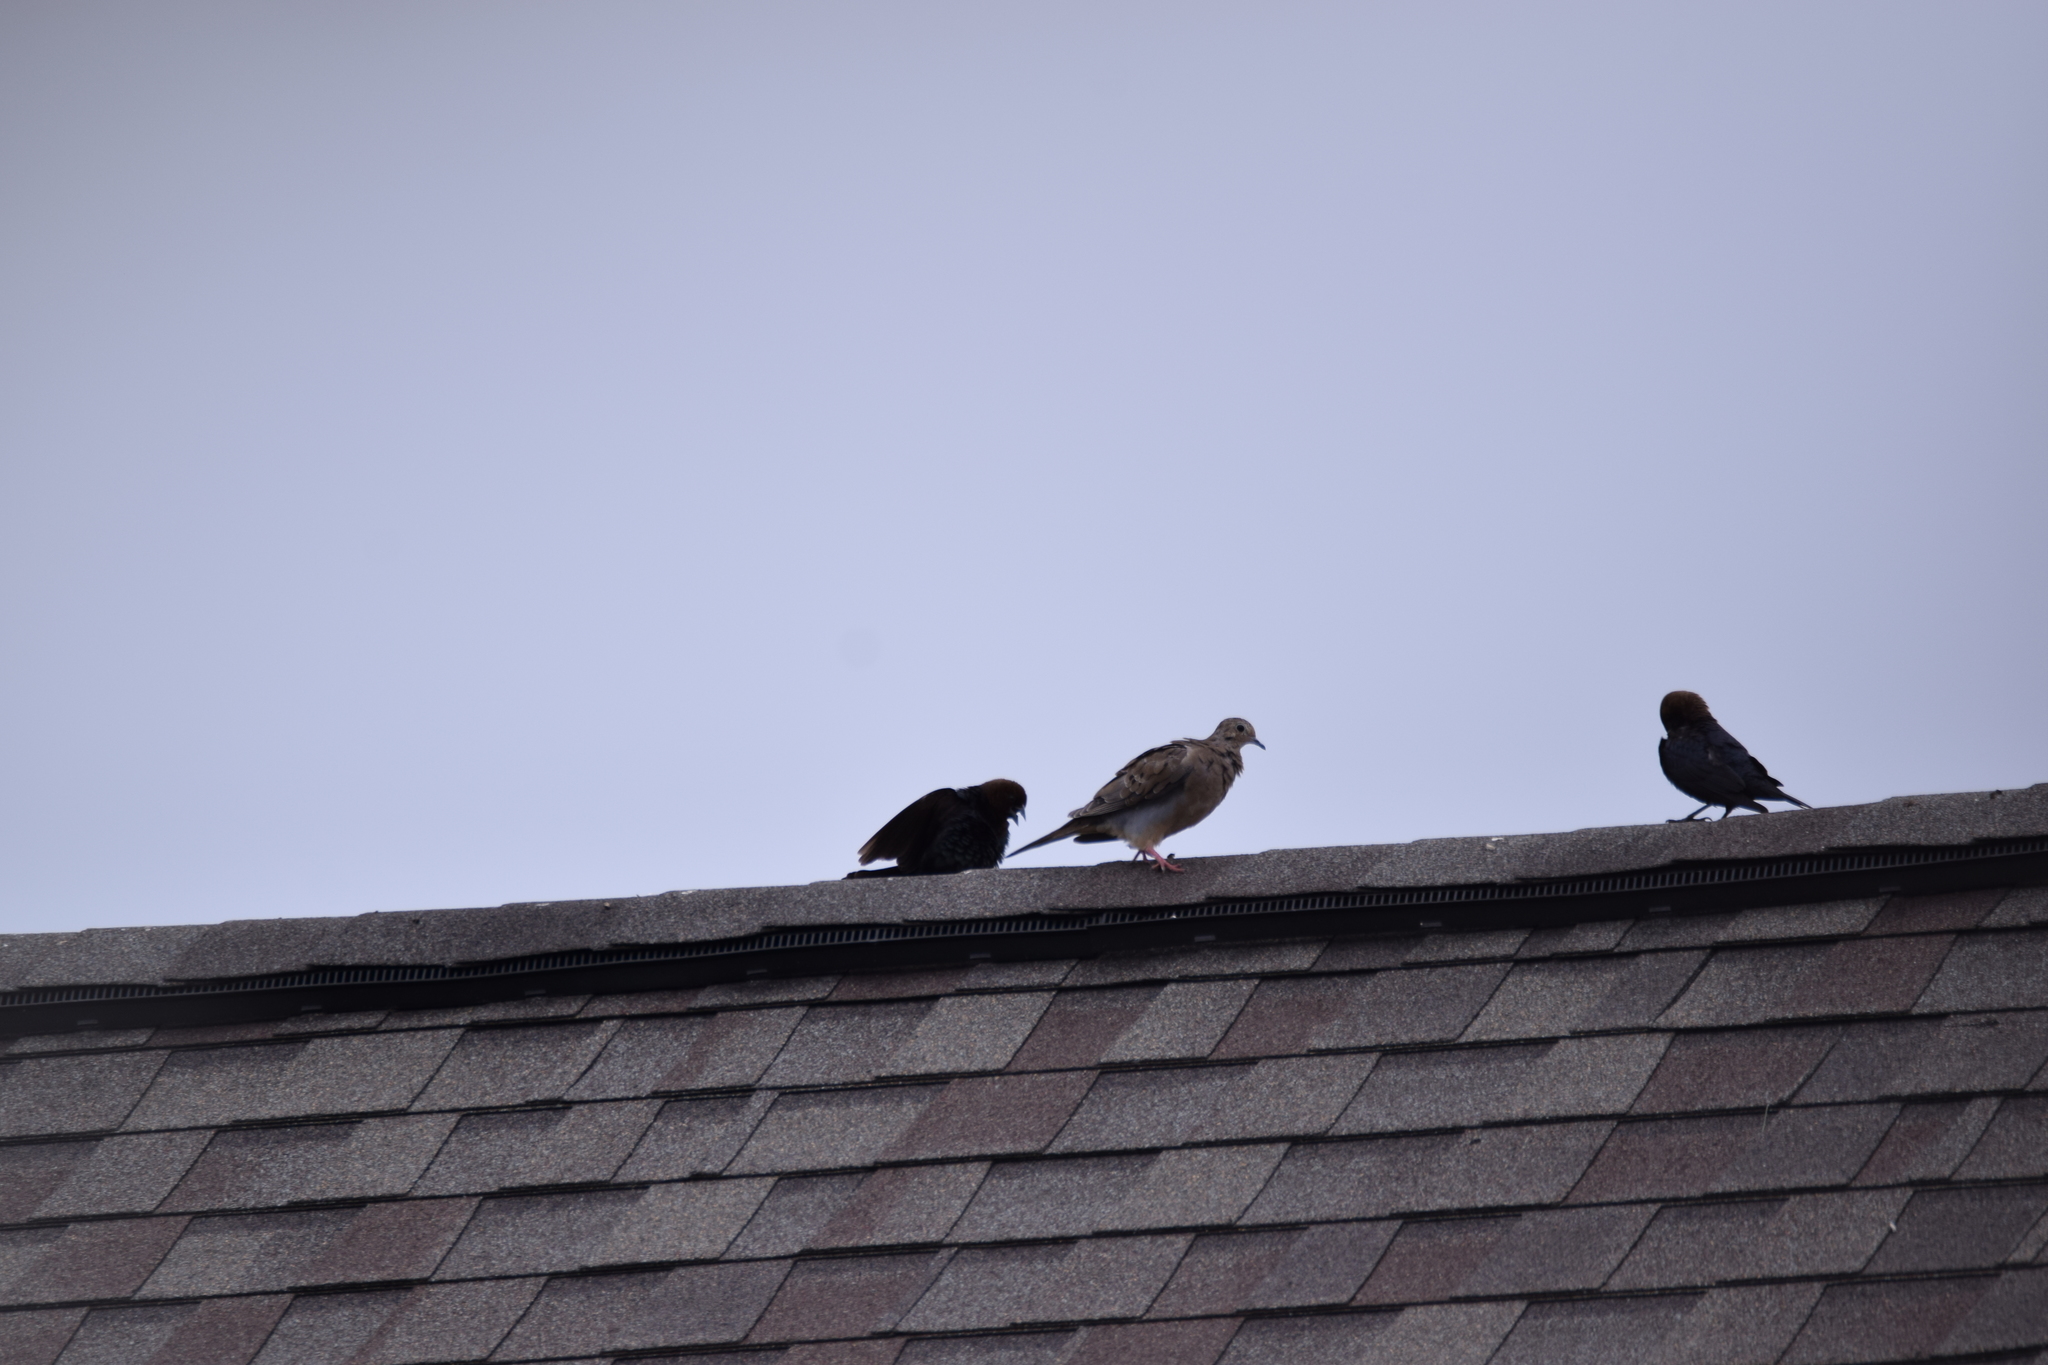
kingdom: Animalia
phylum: Chordata
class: Aves
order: Columbiformes
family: Columbidae
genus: Zenaida
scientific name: Zenaida macroura
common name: Mourning dove
